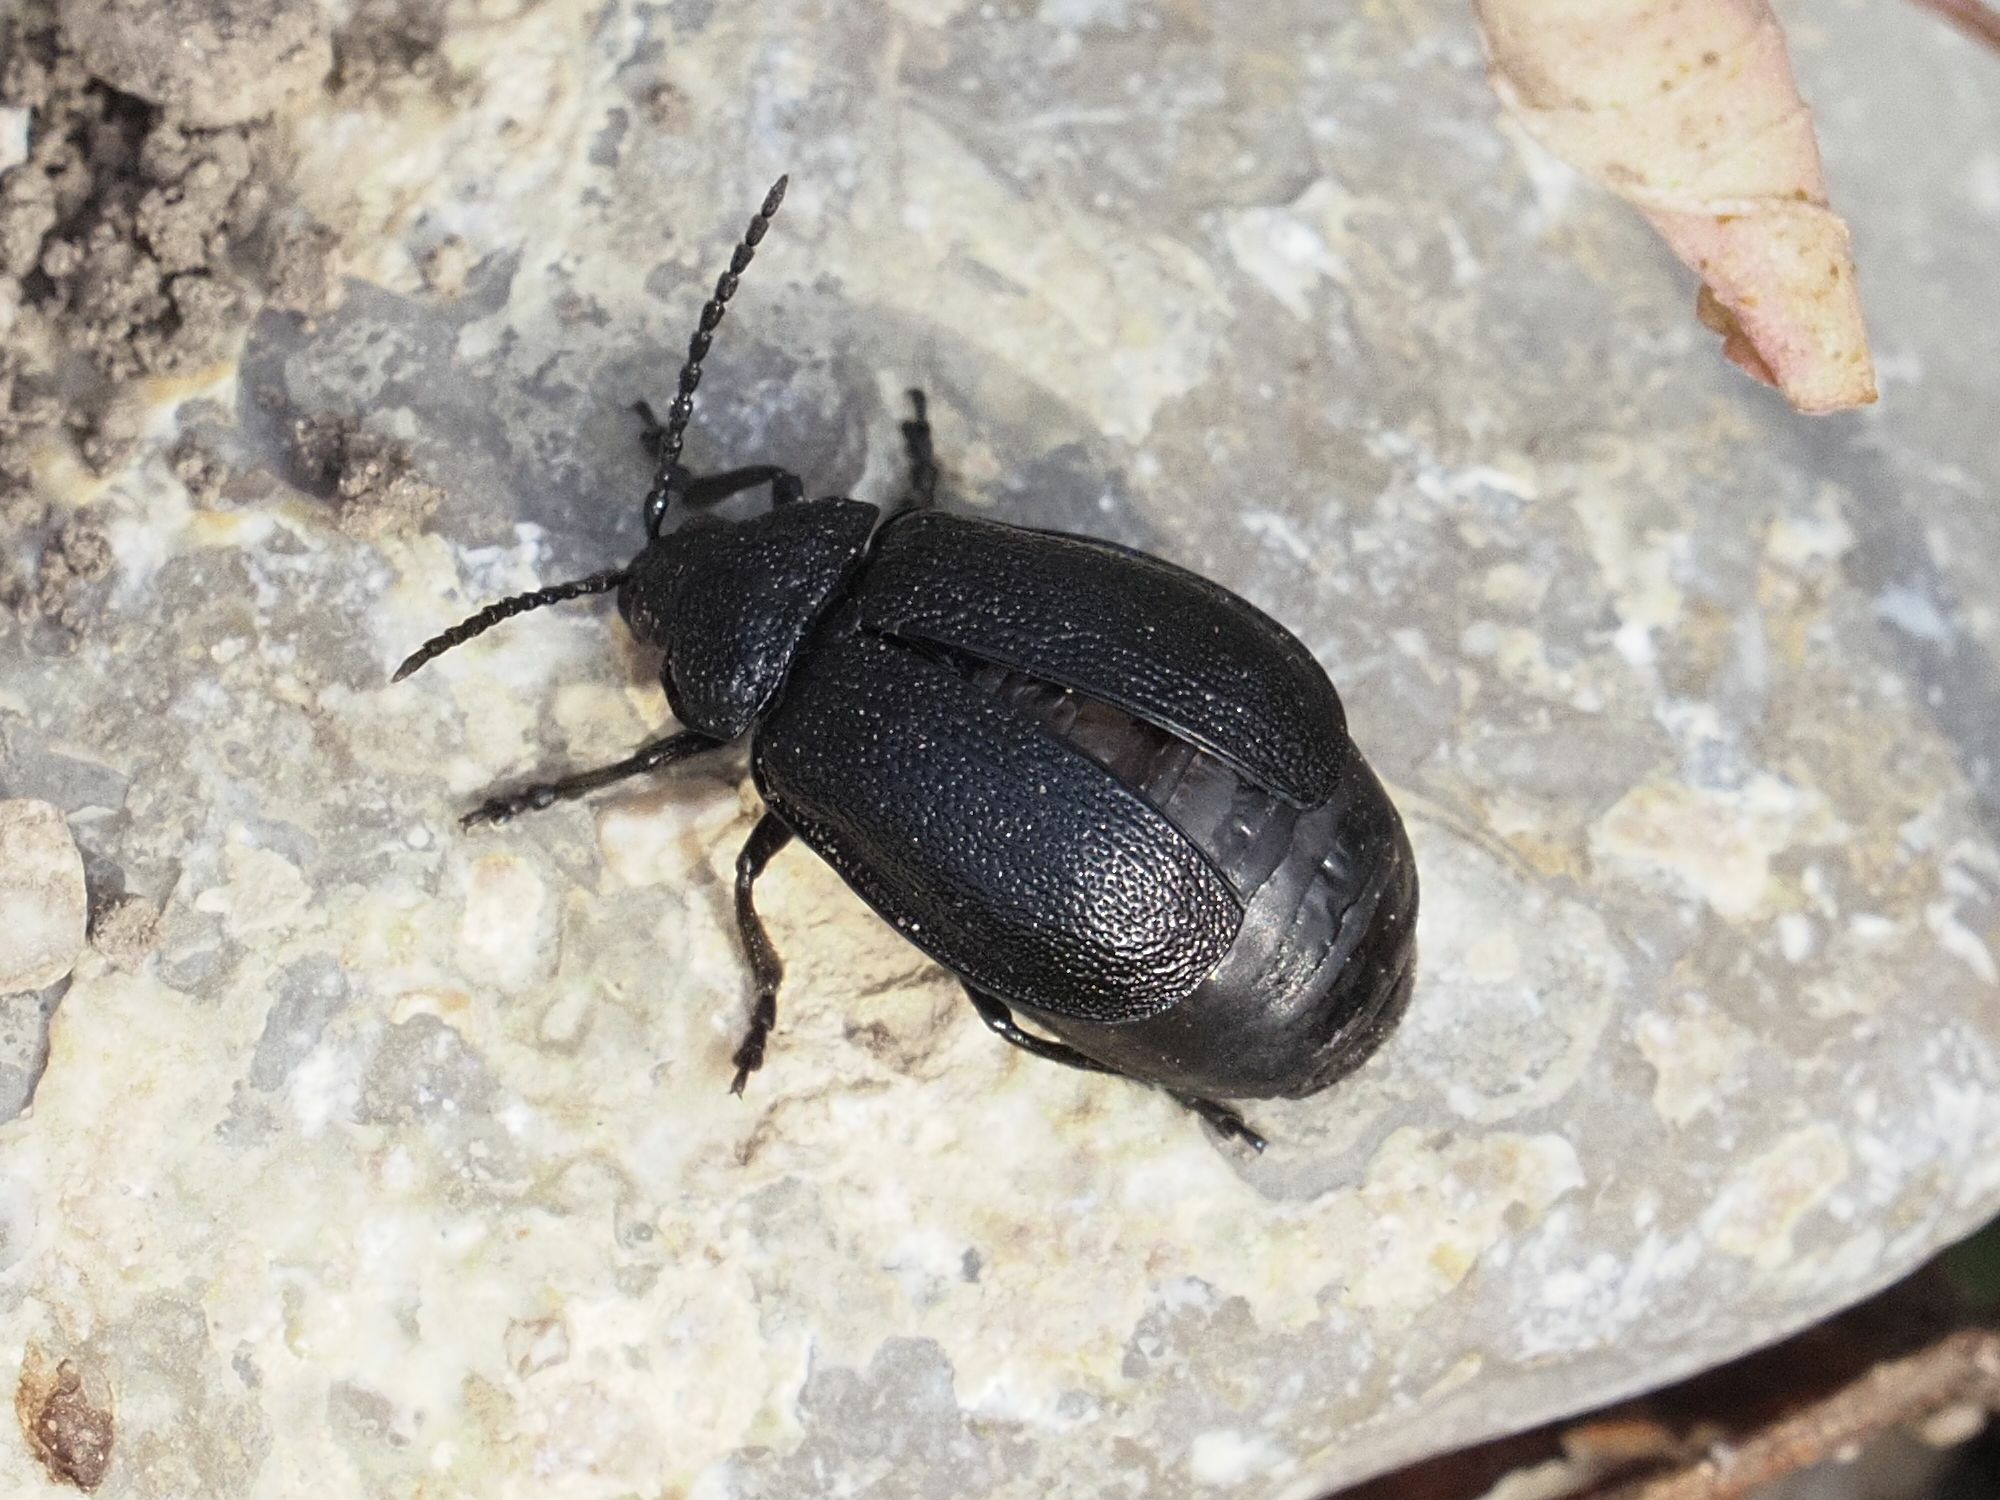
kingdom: Animalia
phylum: Arthropoda
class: Insecta
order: Coleoptera
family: Chrysomelidae
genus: Galeruca
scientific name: Galeruca tanaceti
